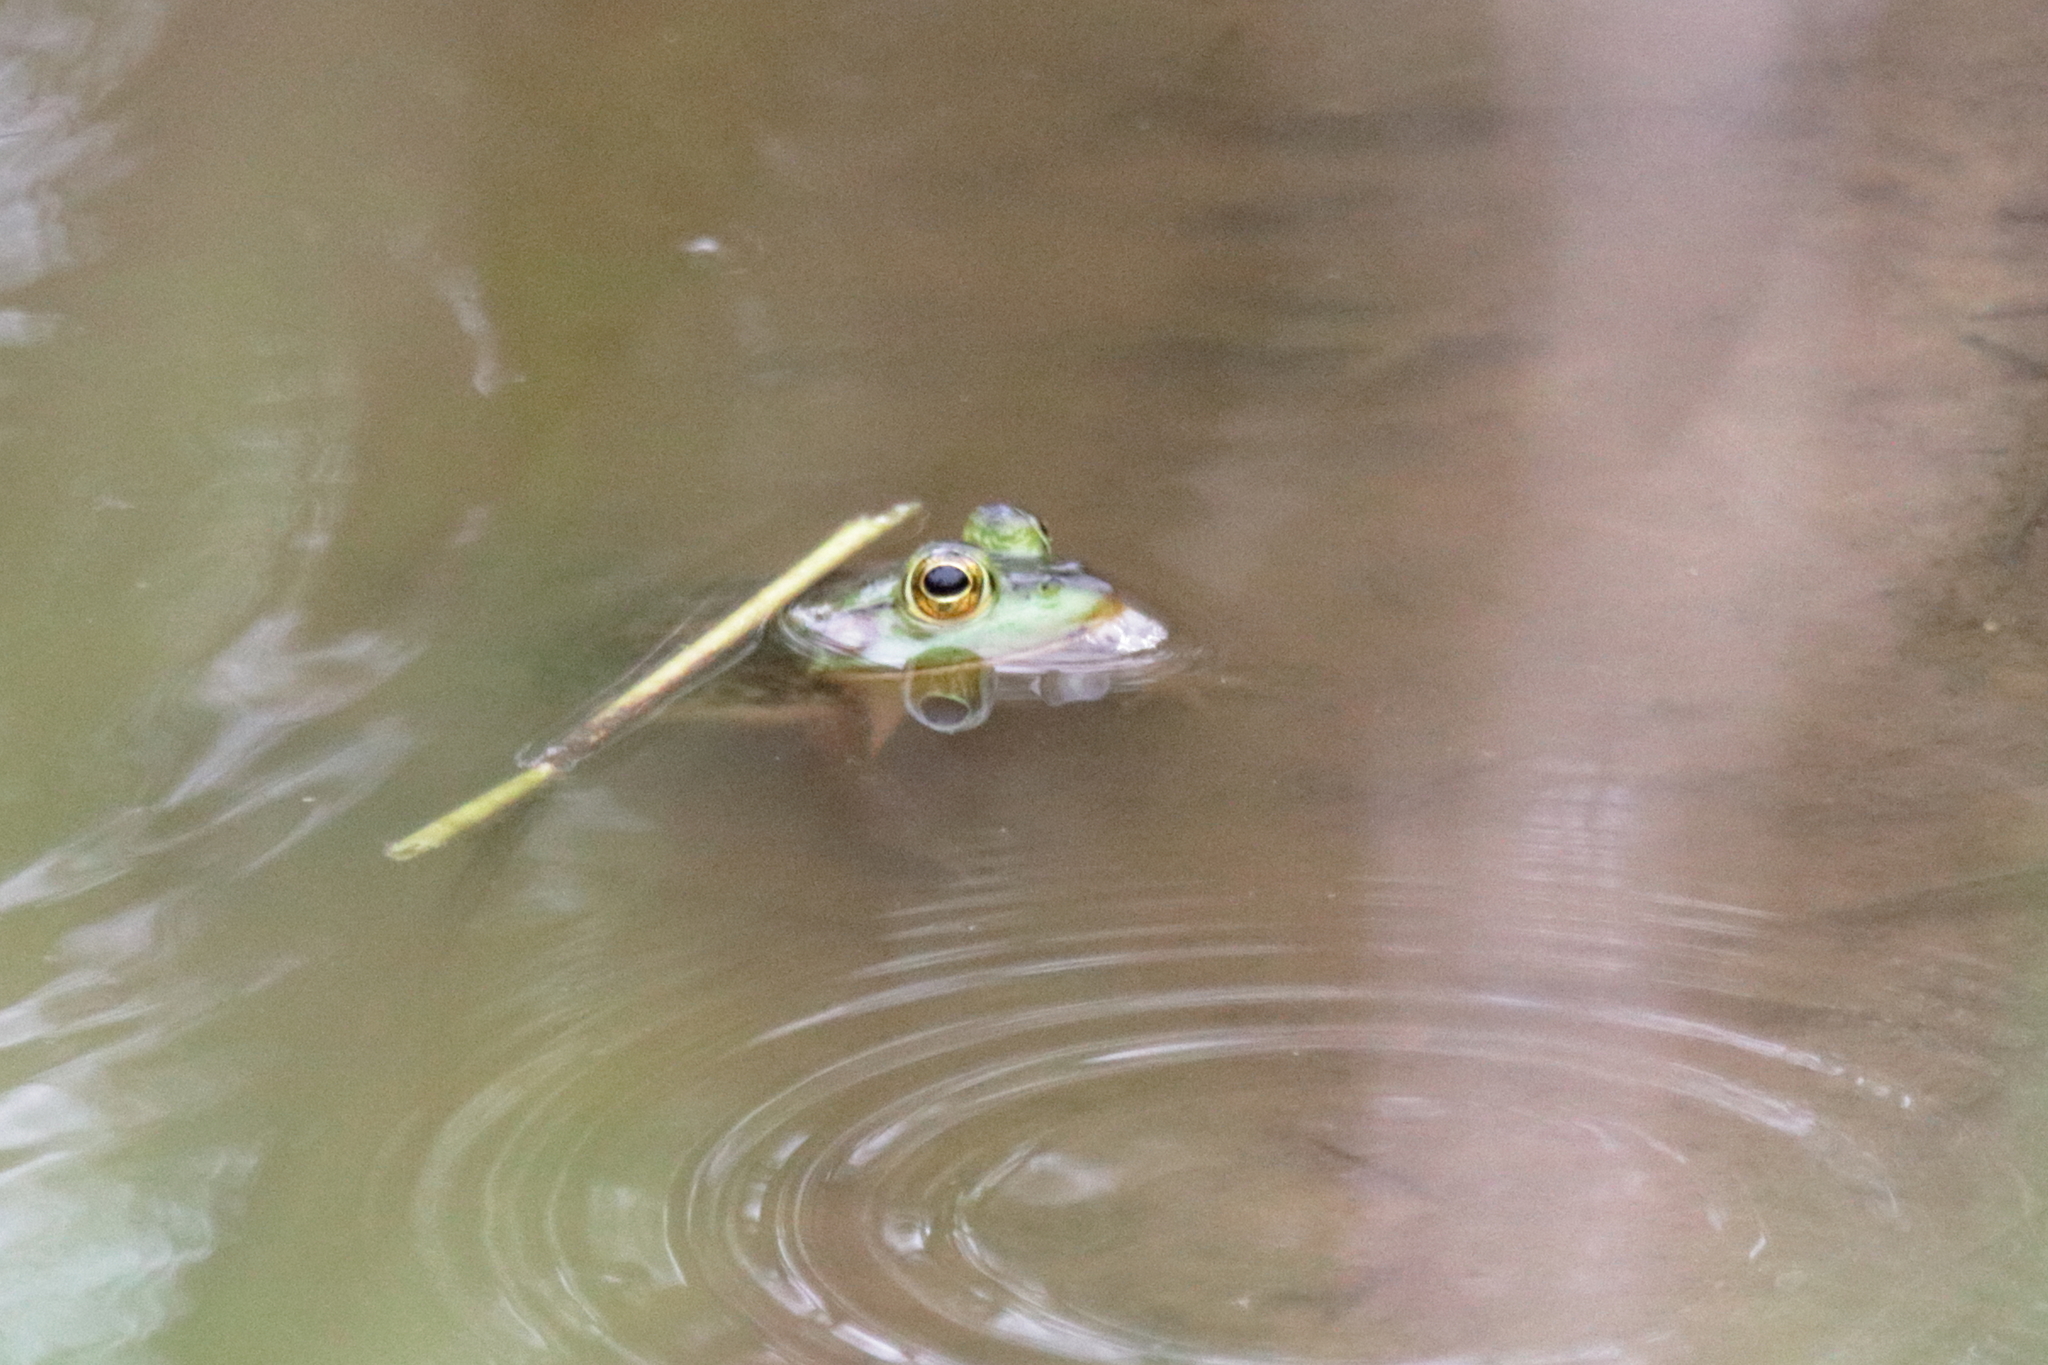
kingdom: Animalia
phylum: Chordata
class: Amphibia
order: Anura
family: Ranidae
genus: Lithobates
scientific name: Lithobates catesbeianus
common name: American bullfrog
